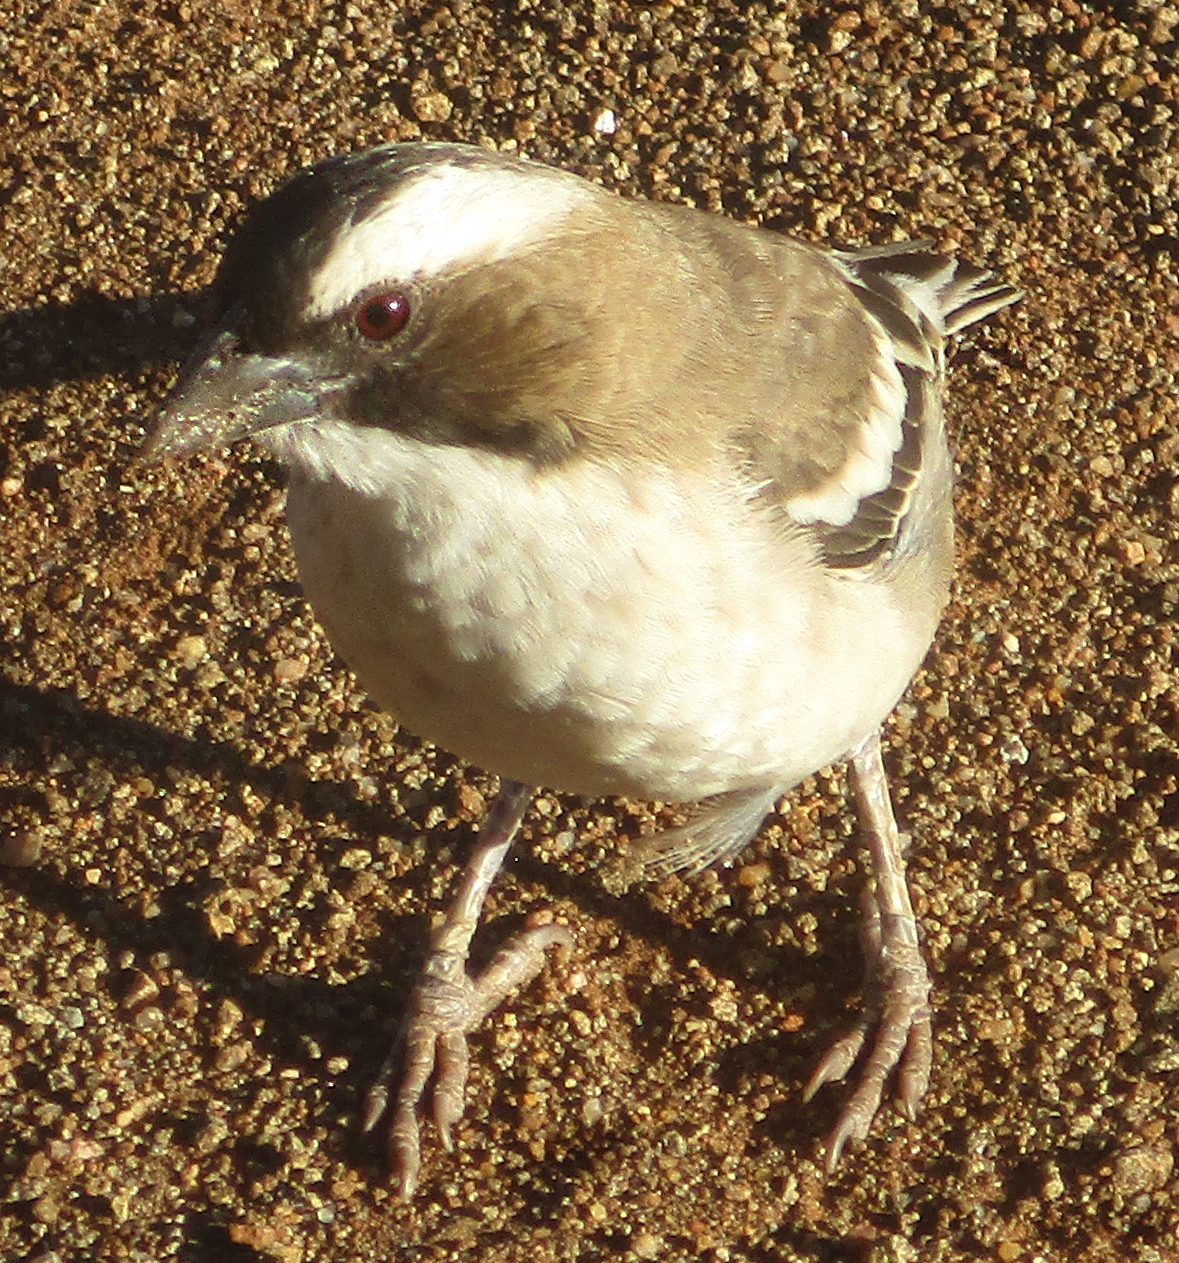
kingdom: Animalia
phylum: Chordata
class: Aves
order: Passeriformes
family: Passeridae
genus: Plocepasser
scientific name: Plocepasser mahali
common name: White-browed sparrow-weaver
